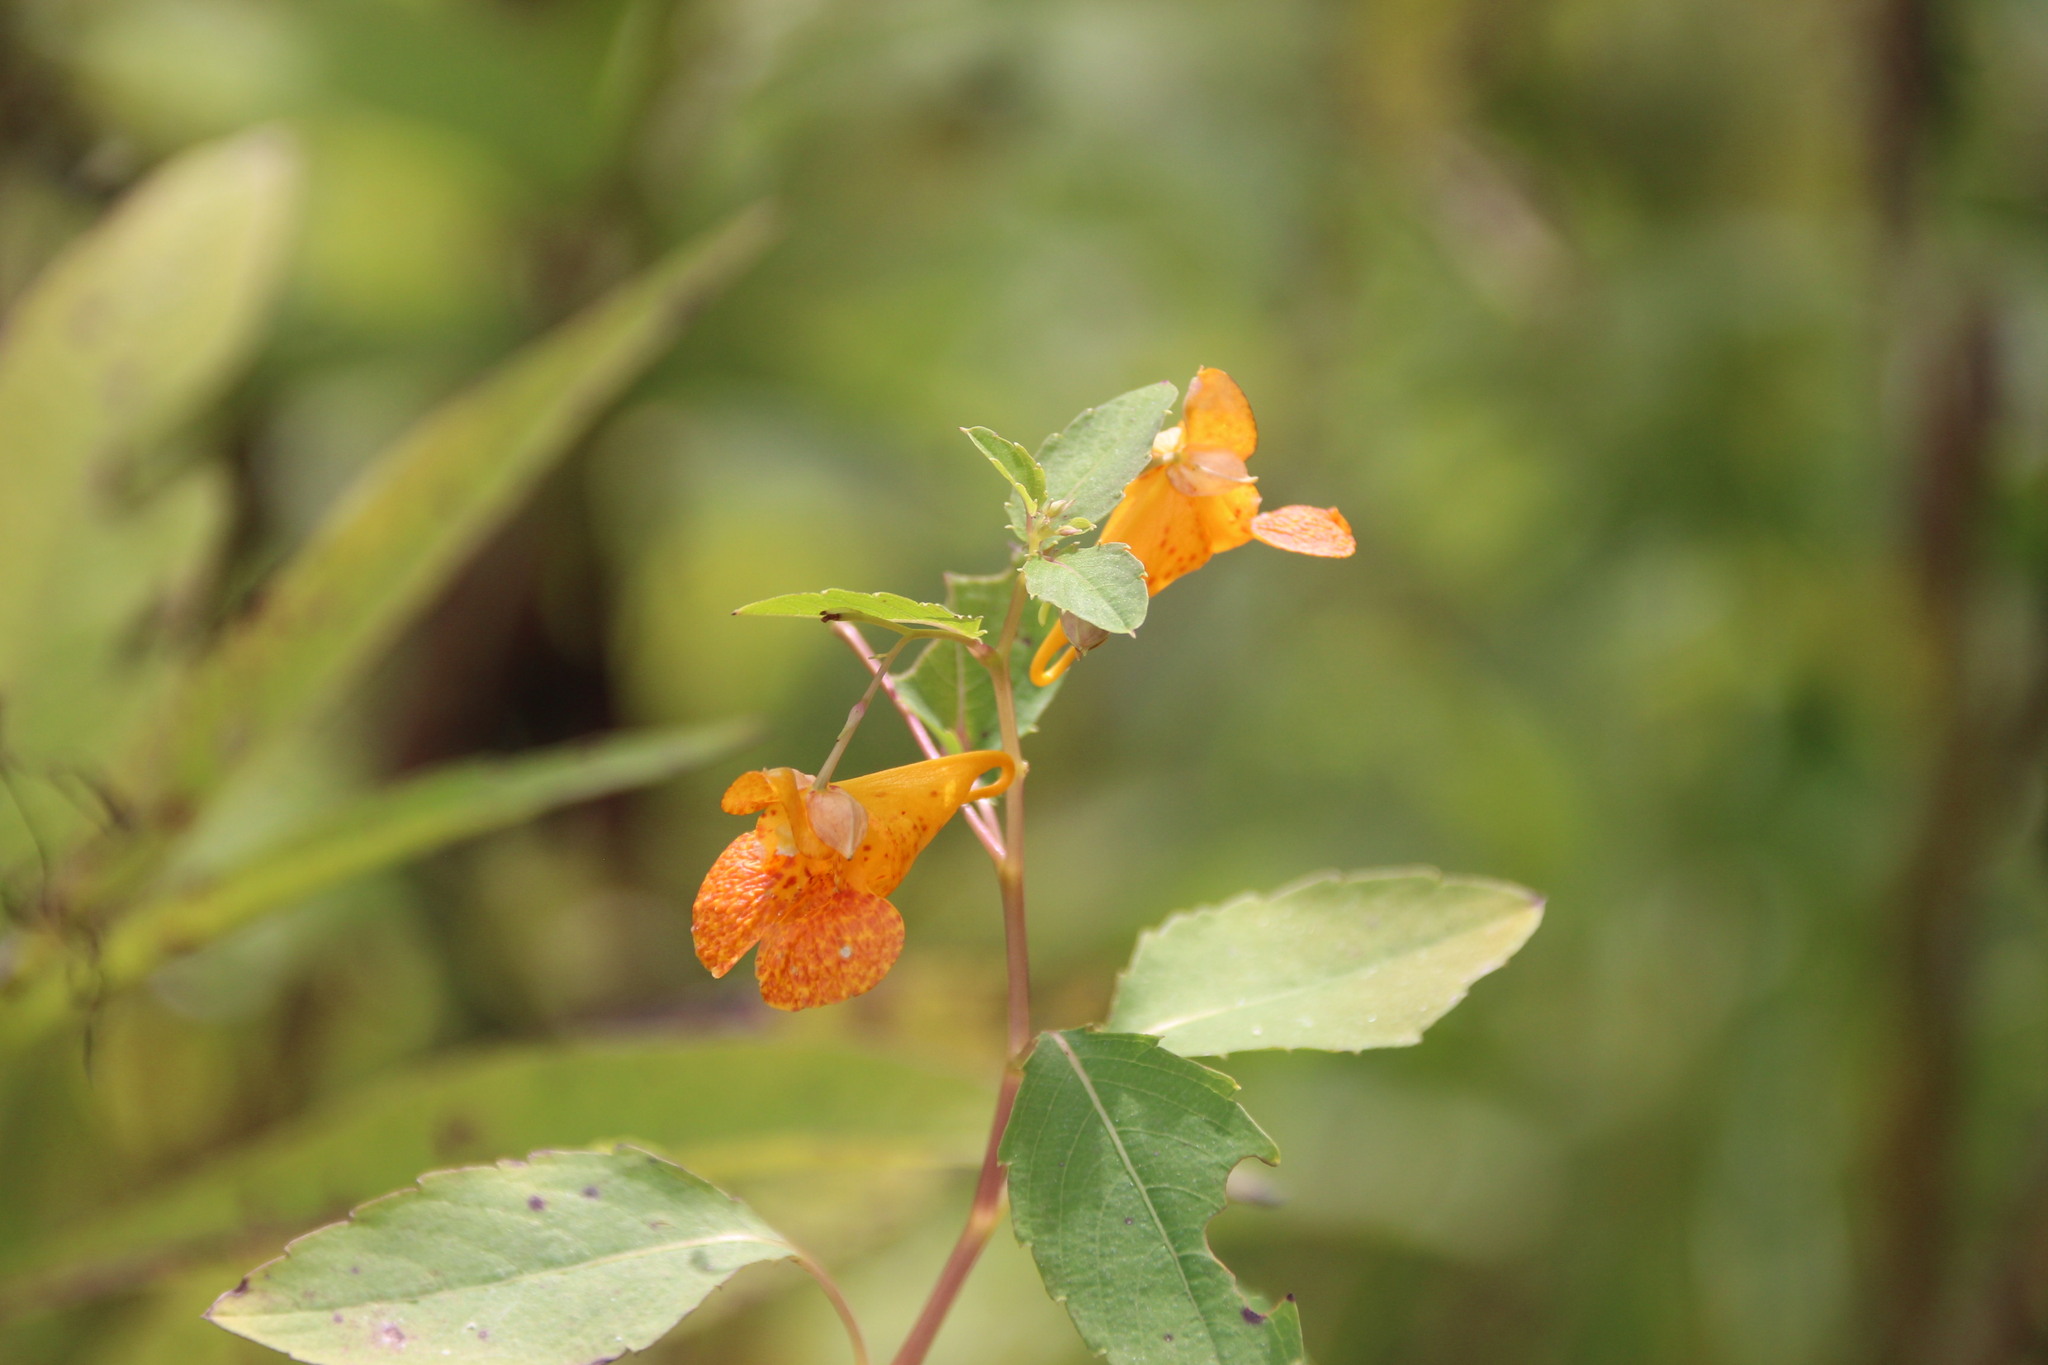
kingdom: Plantae
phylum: Tracheophyta
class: Magnoliopsida
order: Ericales
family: Balsaminaceae
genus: Impatiens
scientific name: Impatiens capensis
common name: Orange balsam
